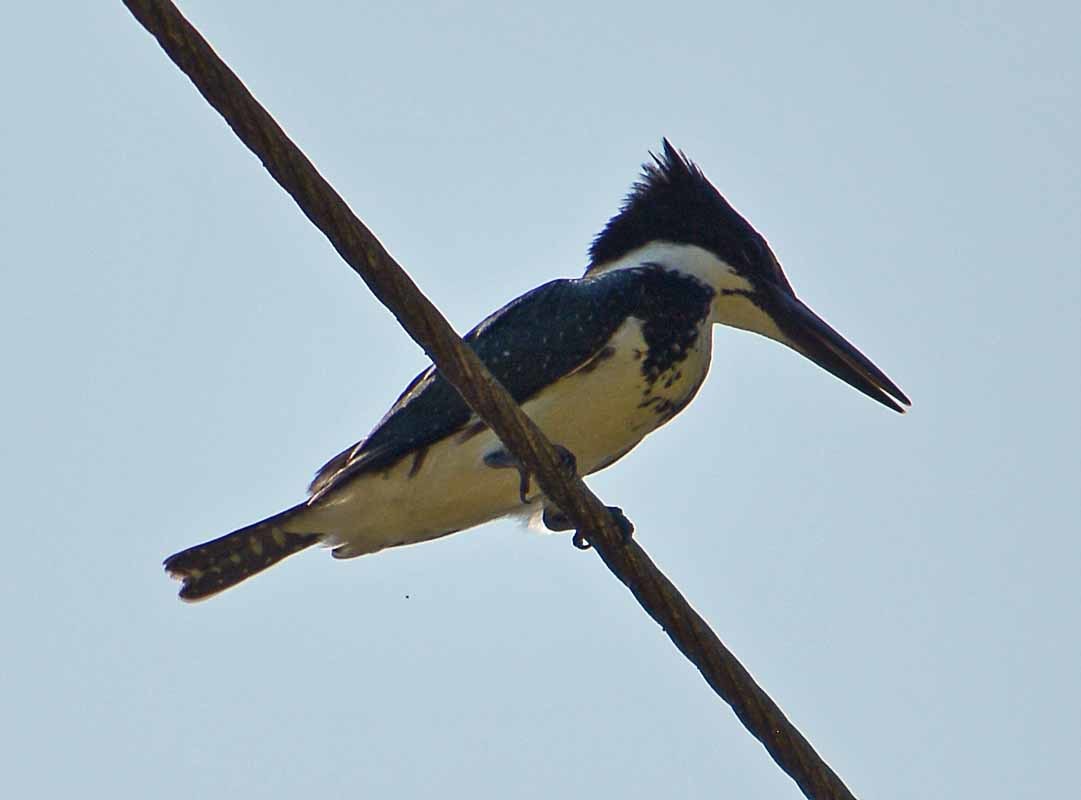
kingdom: Animalia
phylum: Chordata
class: Aves
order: Coraciiformes
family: Alcedinidae
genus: Chloroceryle
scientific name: Chloroceryle amazona
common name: Amazon kingfisher
